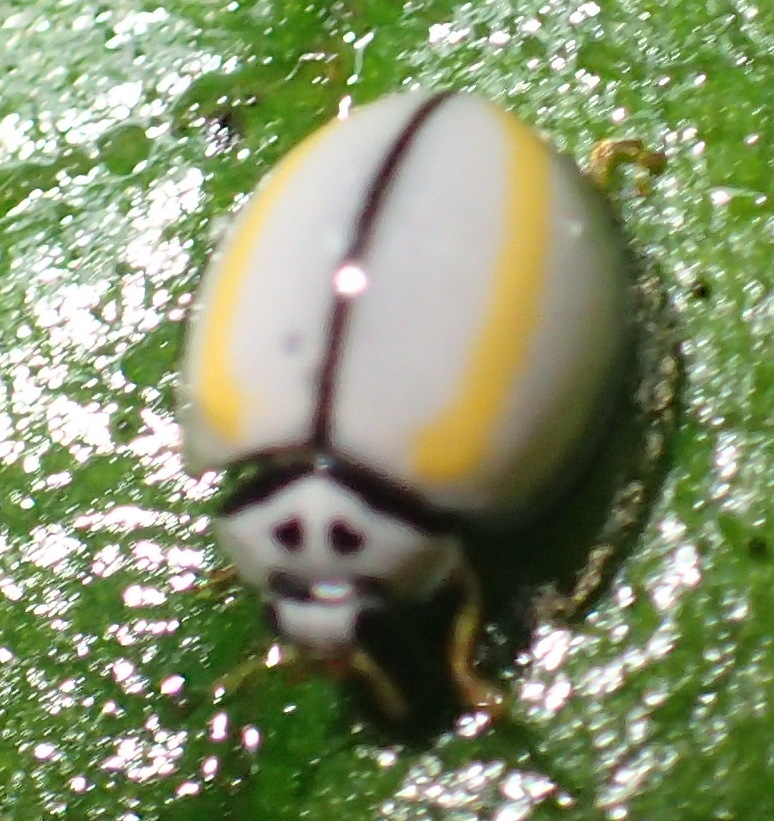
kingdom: Animalia
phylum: Arthropoda
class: Insecta
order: Coleoptera
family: Coccinellidae
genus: Oenopia
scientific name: Oenopia
